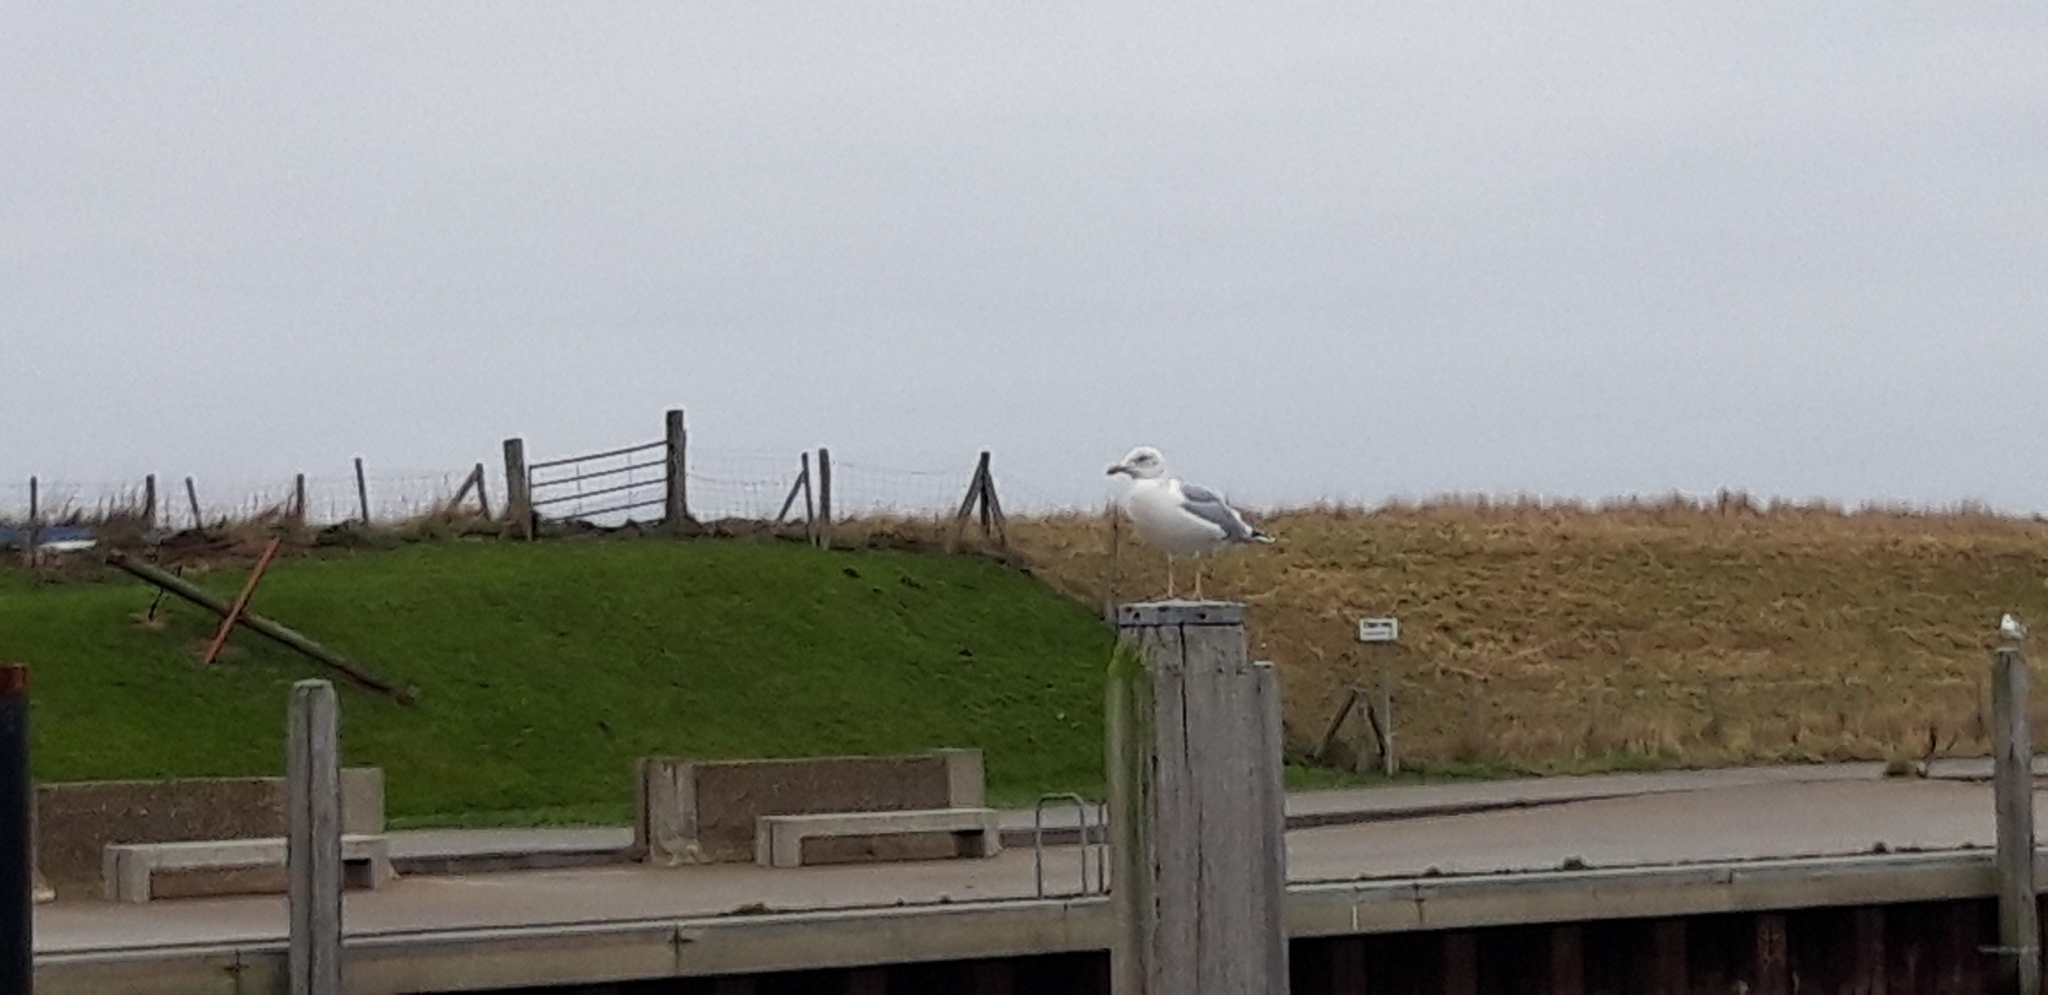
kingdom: Animalia
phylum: Chordata
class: Aves
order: Charadriiformes
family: Laridae
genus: Larus
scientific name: Larus argentatus
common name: Herring gull
